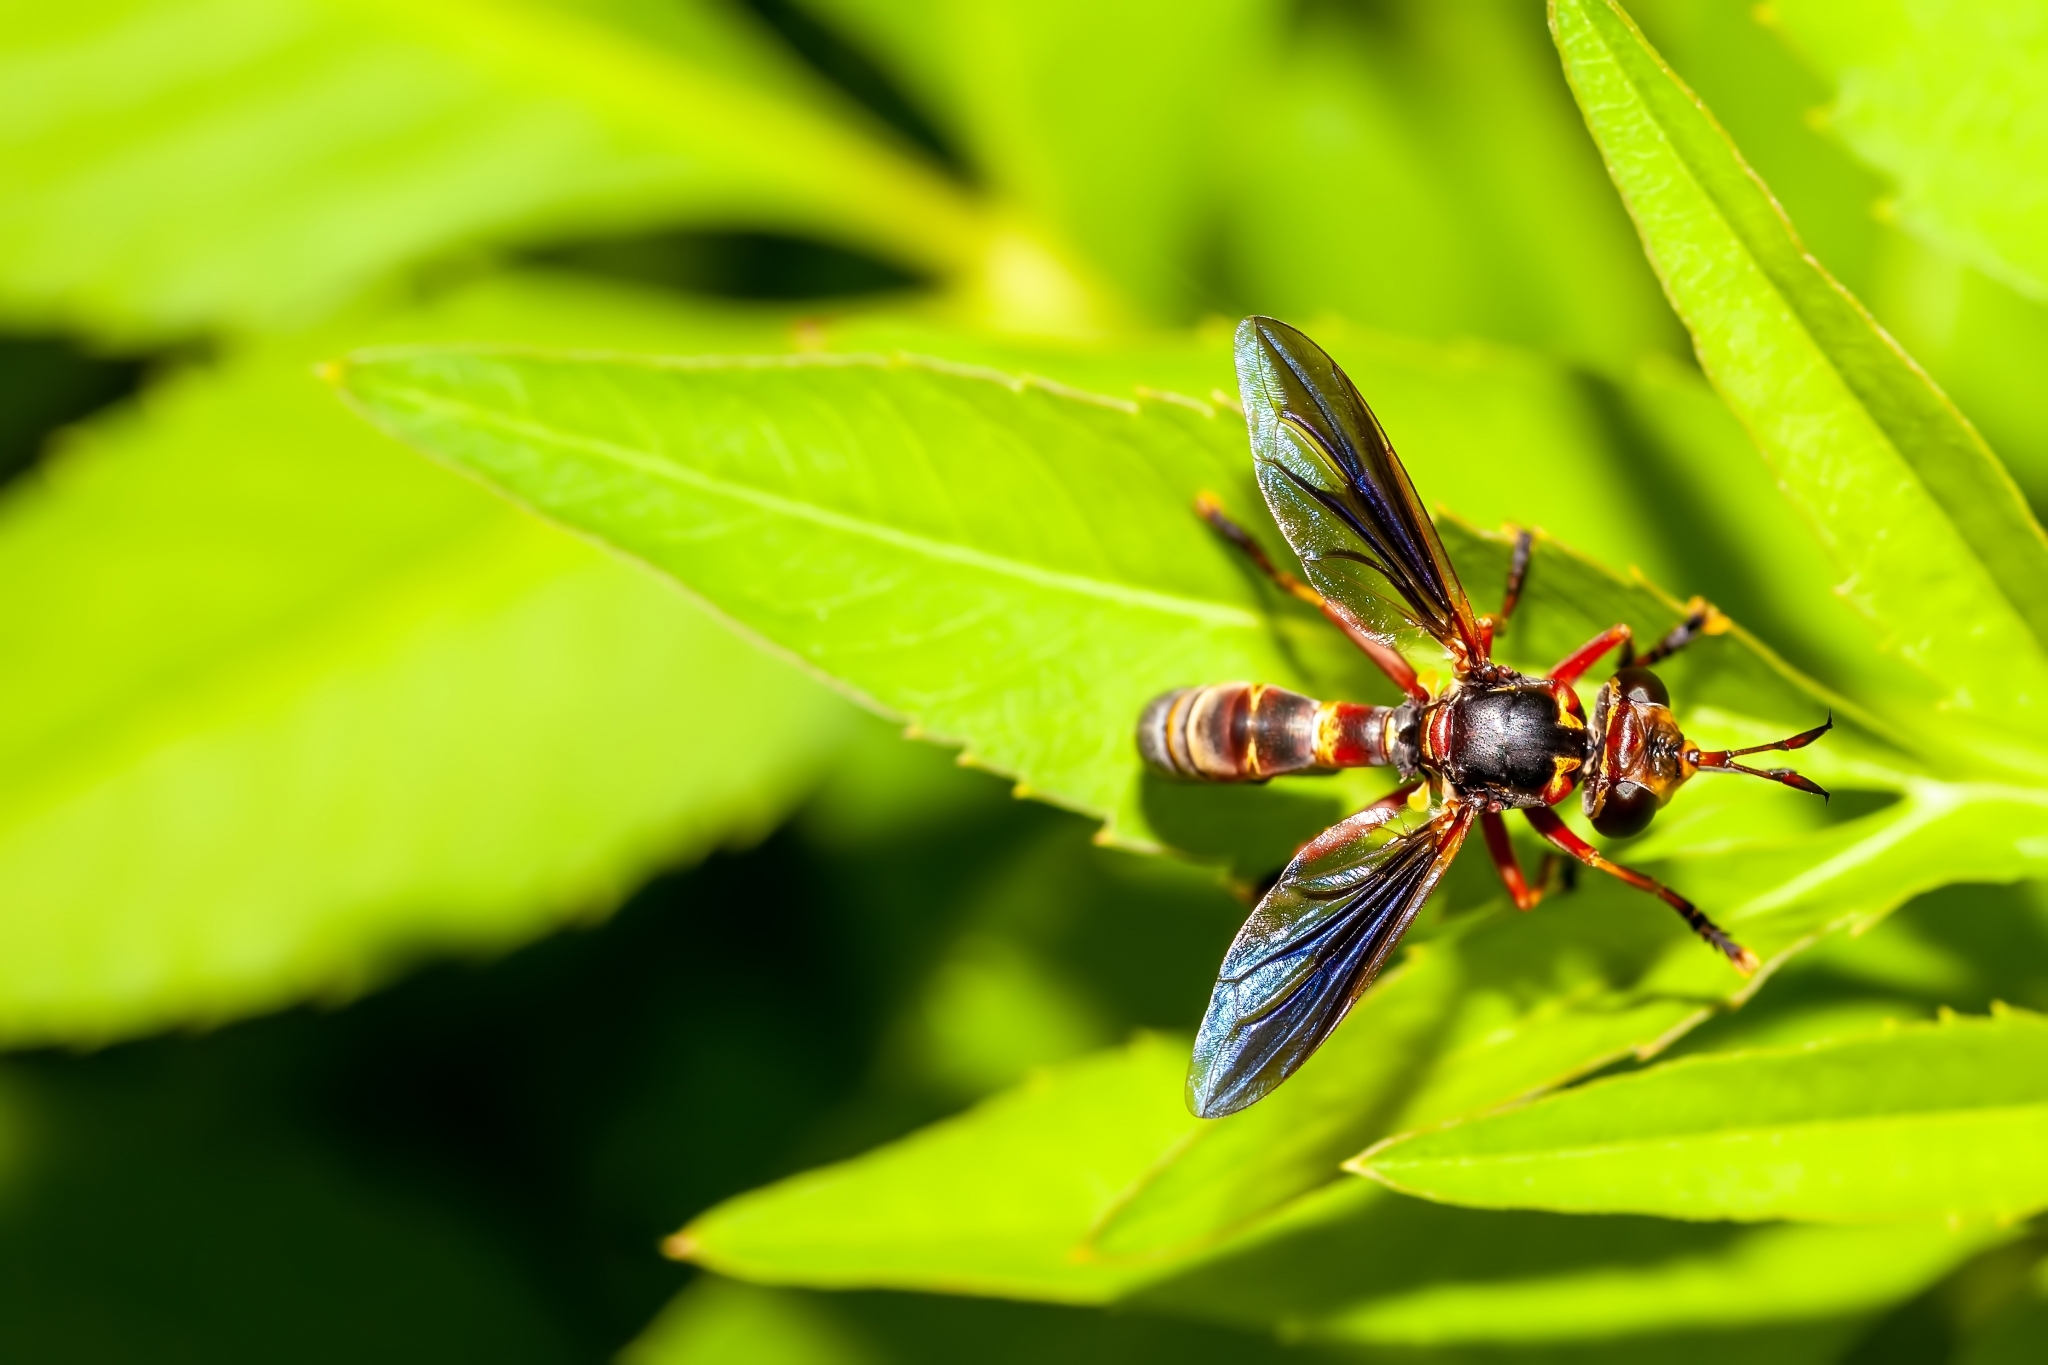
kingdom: Animalia
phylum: Arthropoda
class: Insecta
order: Diptera
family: Conopidae
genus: Physoconops
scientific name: Physoconops excisus
